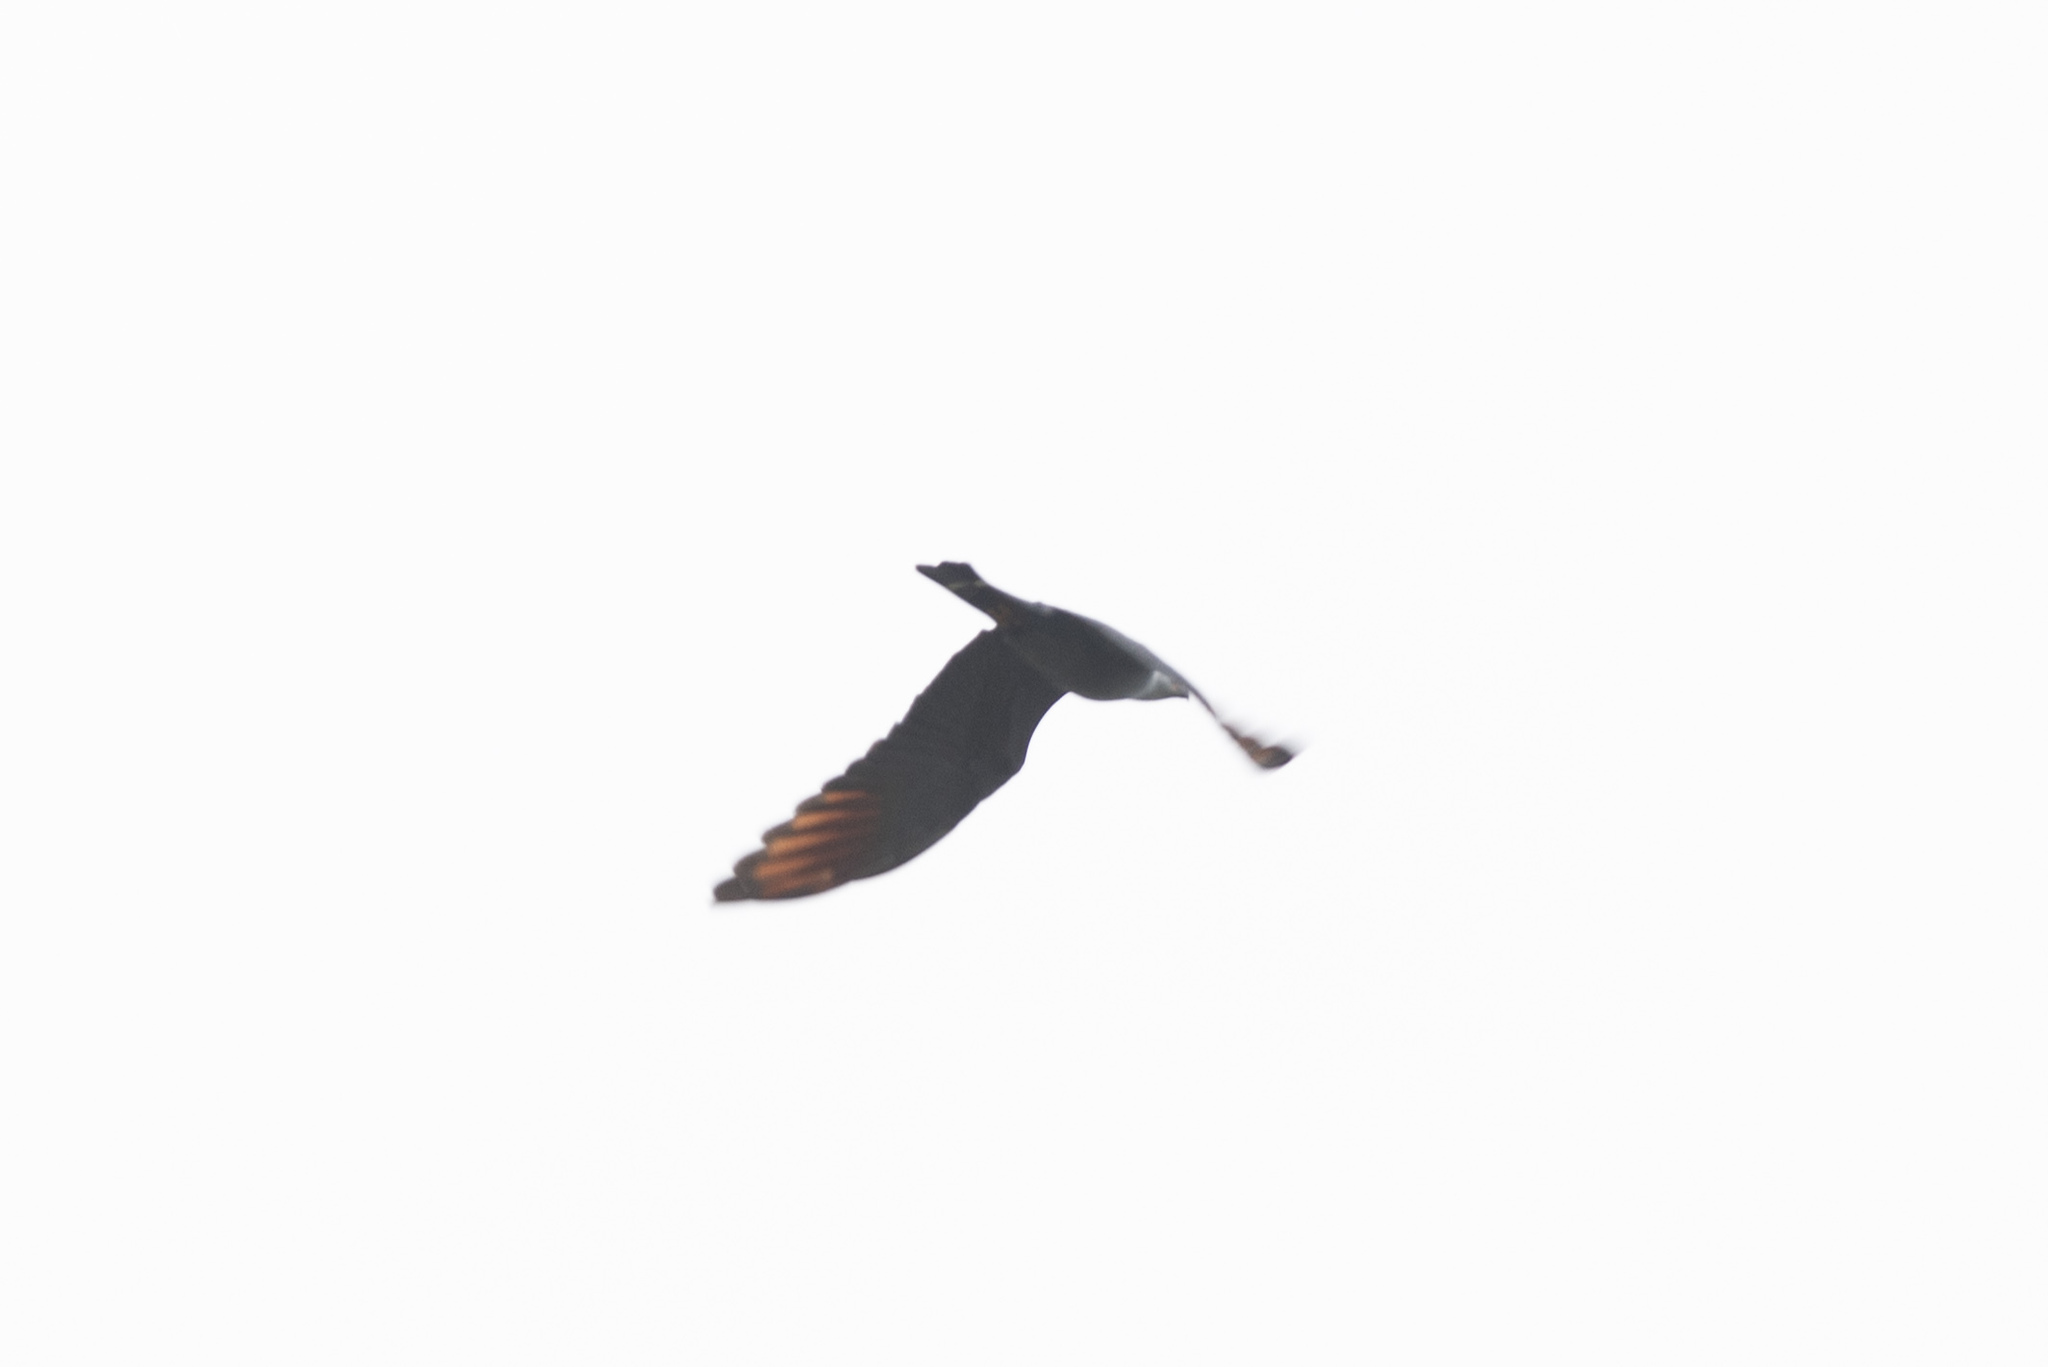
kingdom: Animalia
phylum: Chordata
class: Aves
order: Accipitriformes
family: Accipitridae
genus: Ictinia
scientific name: Ictinia plumbea
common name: Plumbeous kite
